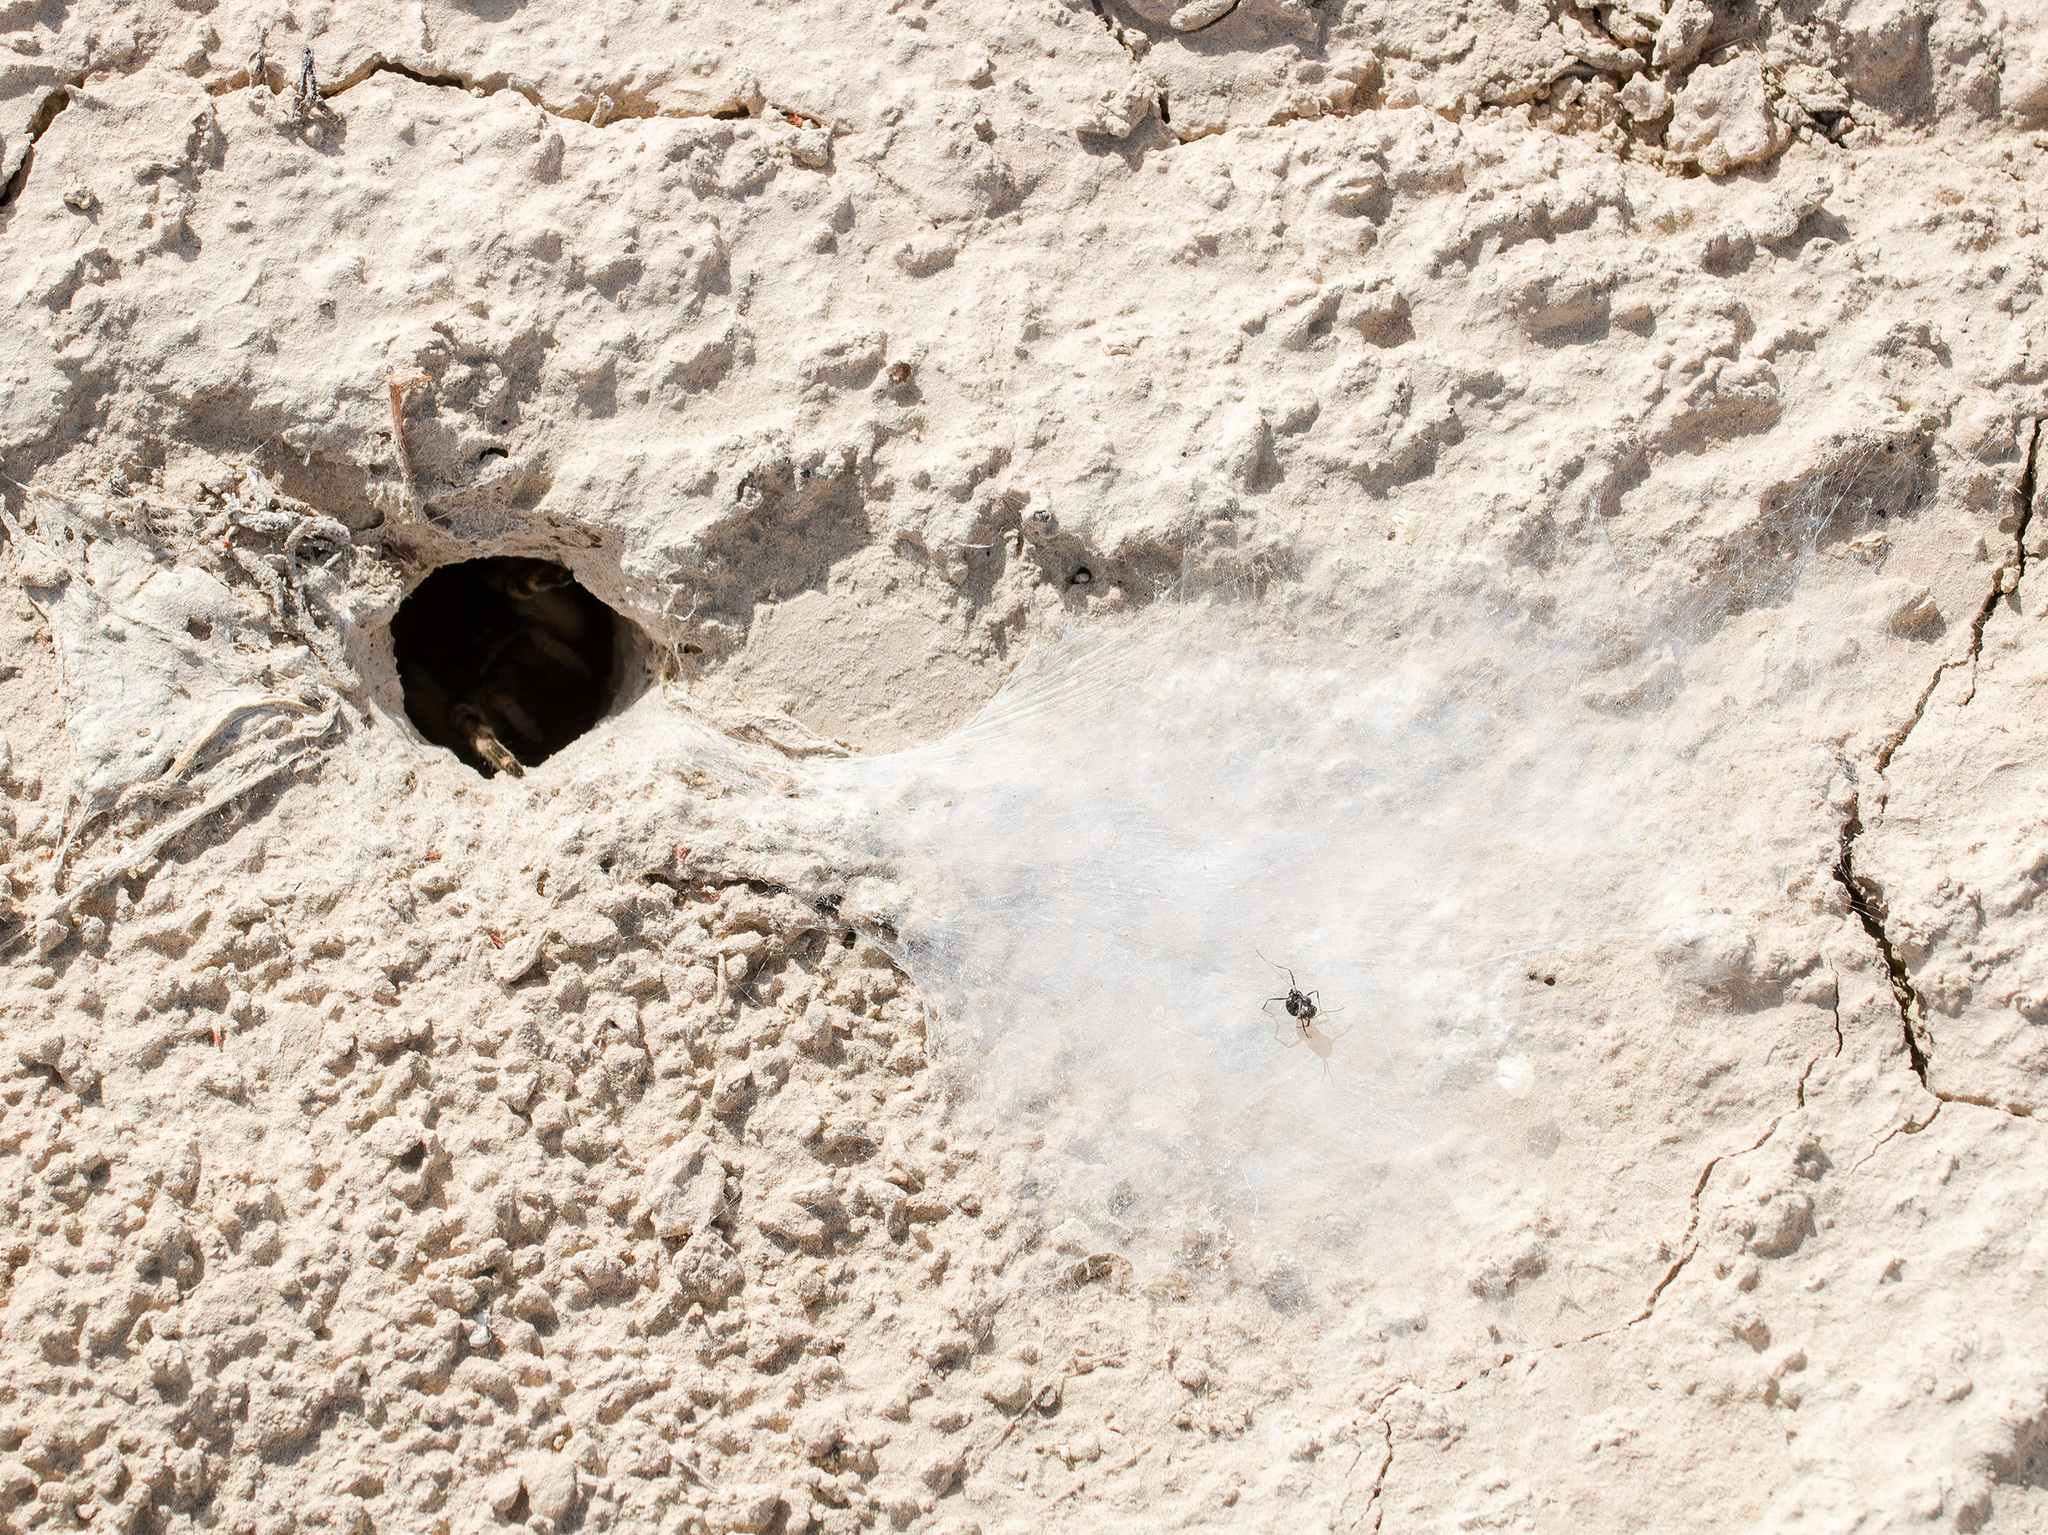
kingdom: Animalia
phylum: Arthropoda
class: Arachnida
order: Araneae
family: Lycosidae
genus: Lycosa
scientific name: Lycosa singoriensis
